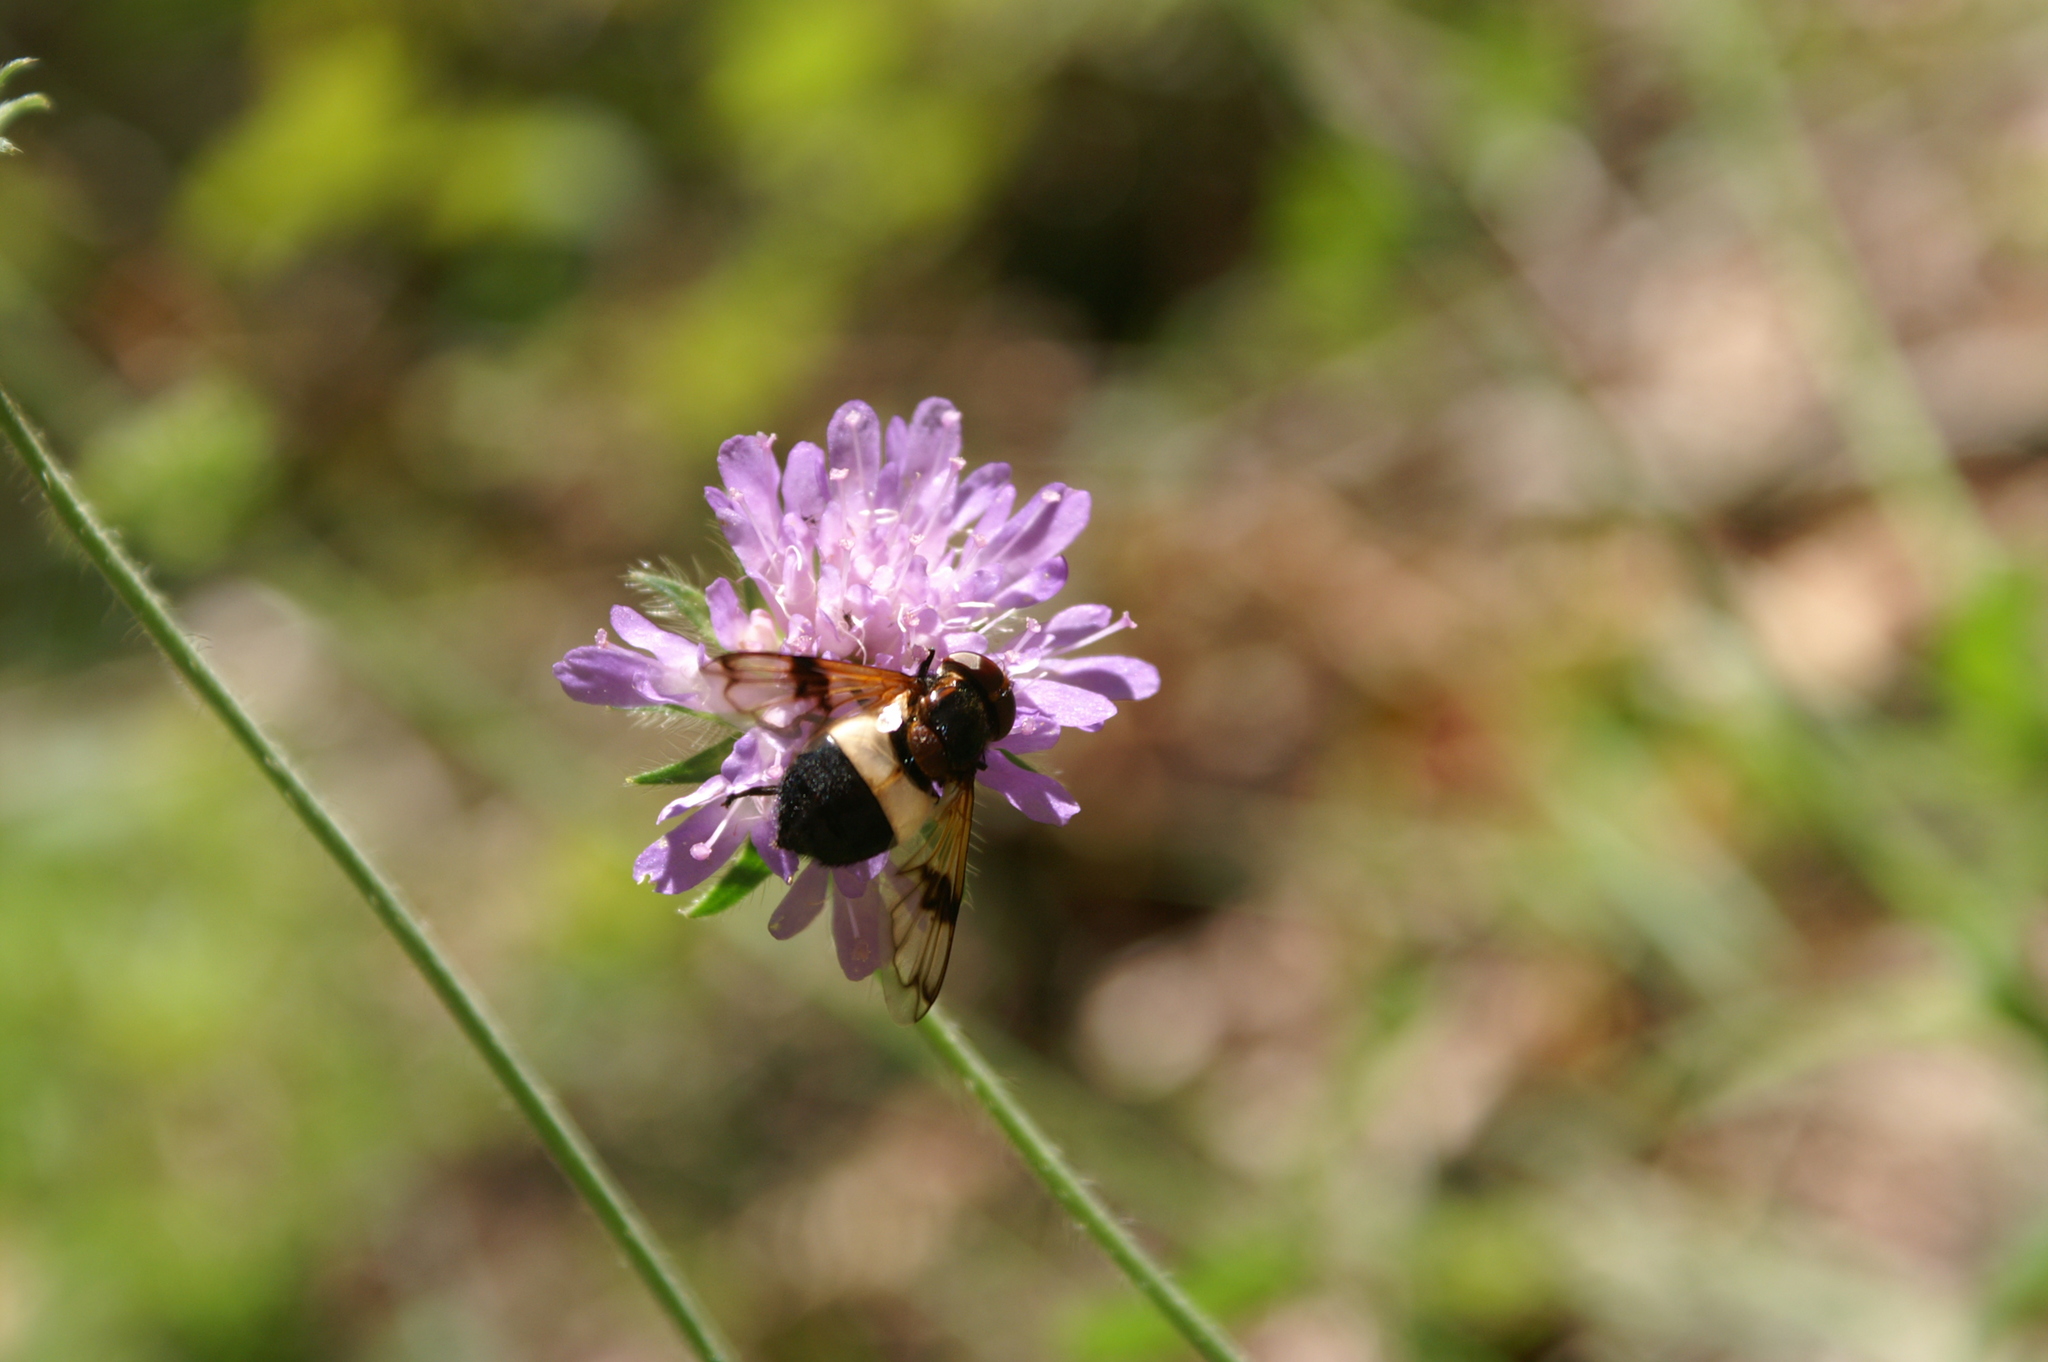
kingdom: Animalia
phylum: Arthropoda
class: Insecta
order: Diptera
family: Syrphidae
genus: Volucella
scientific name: Volucella pellucens
